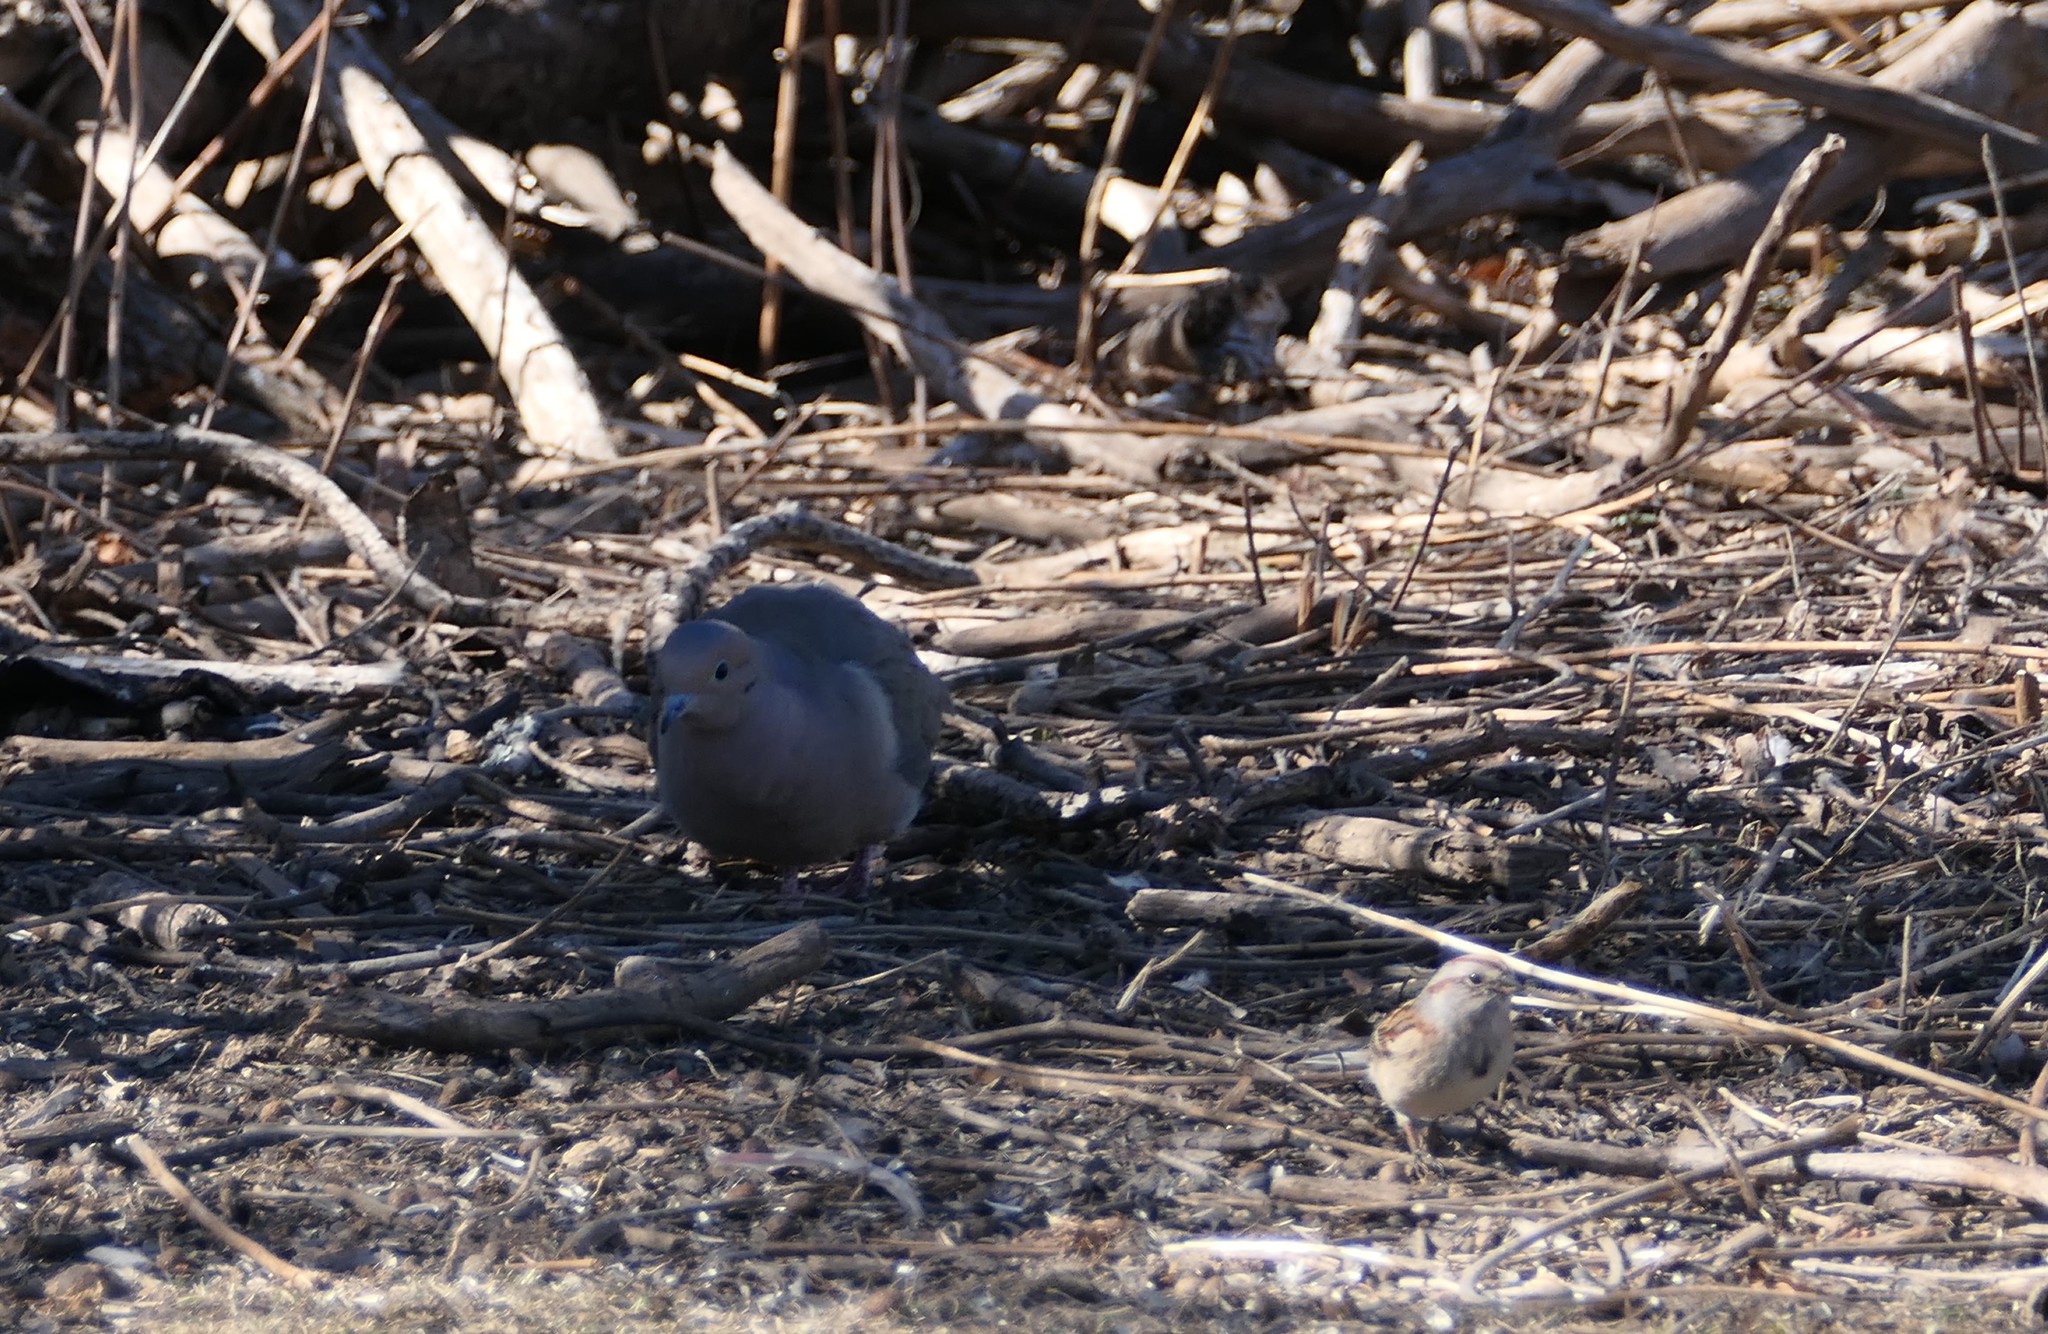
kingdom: Animalia
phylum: Chordata
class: Aves
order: Columbiformes
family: Columbidae
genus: Zenaida
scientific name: Zenaida macroura
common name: Mourning dove
